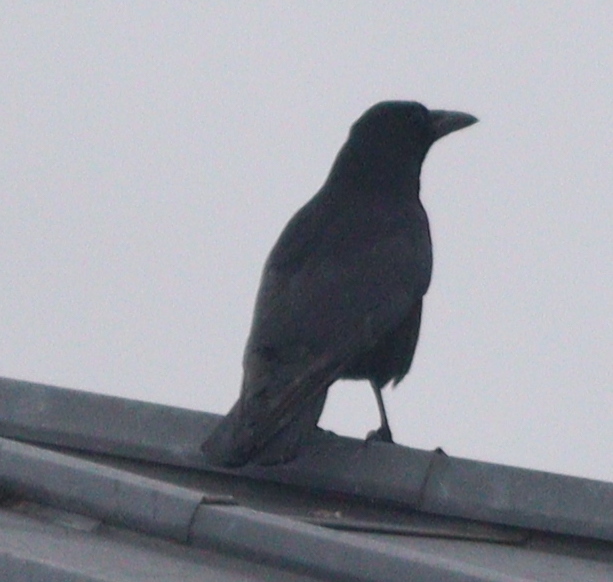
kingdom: Animalia
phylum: Chordata
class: Aves
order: Passeriformes
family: Corvidae
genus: Corvus
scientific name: Corvus corone
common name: Carrion crow
